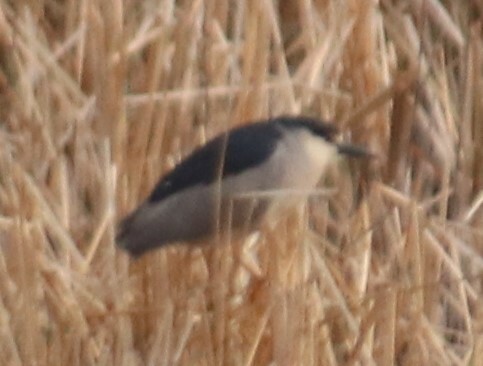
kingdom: Animalia
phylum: Chordata
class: Aves
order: Pelecaniformes
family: Ardeidae
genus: Nycticorax
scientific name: Nycticorax nycticorax
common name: Black-crowned night heron
